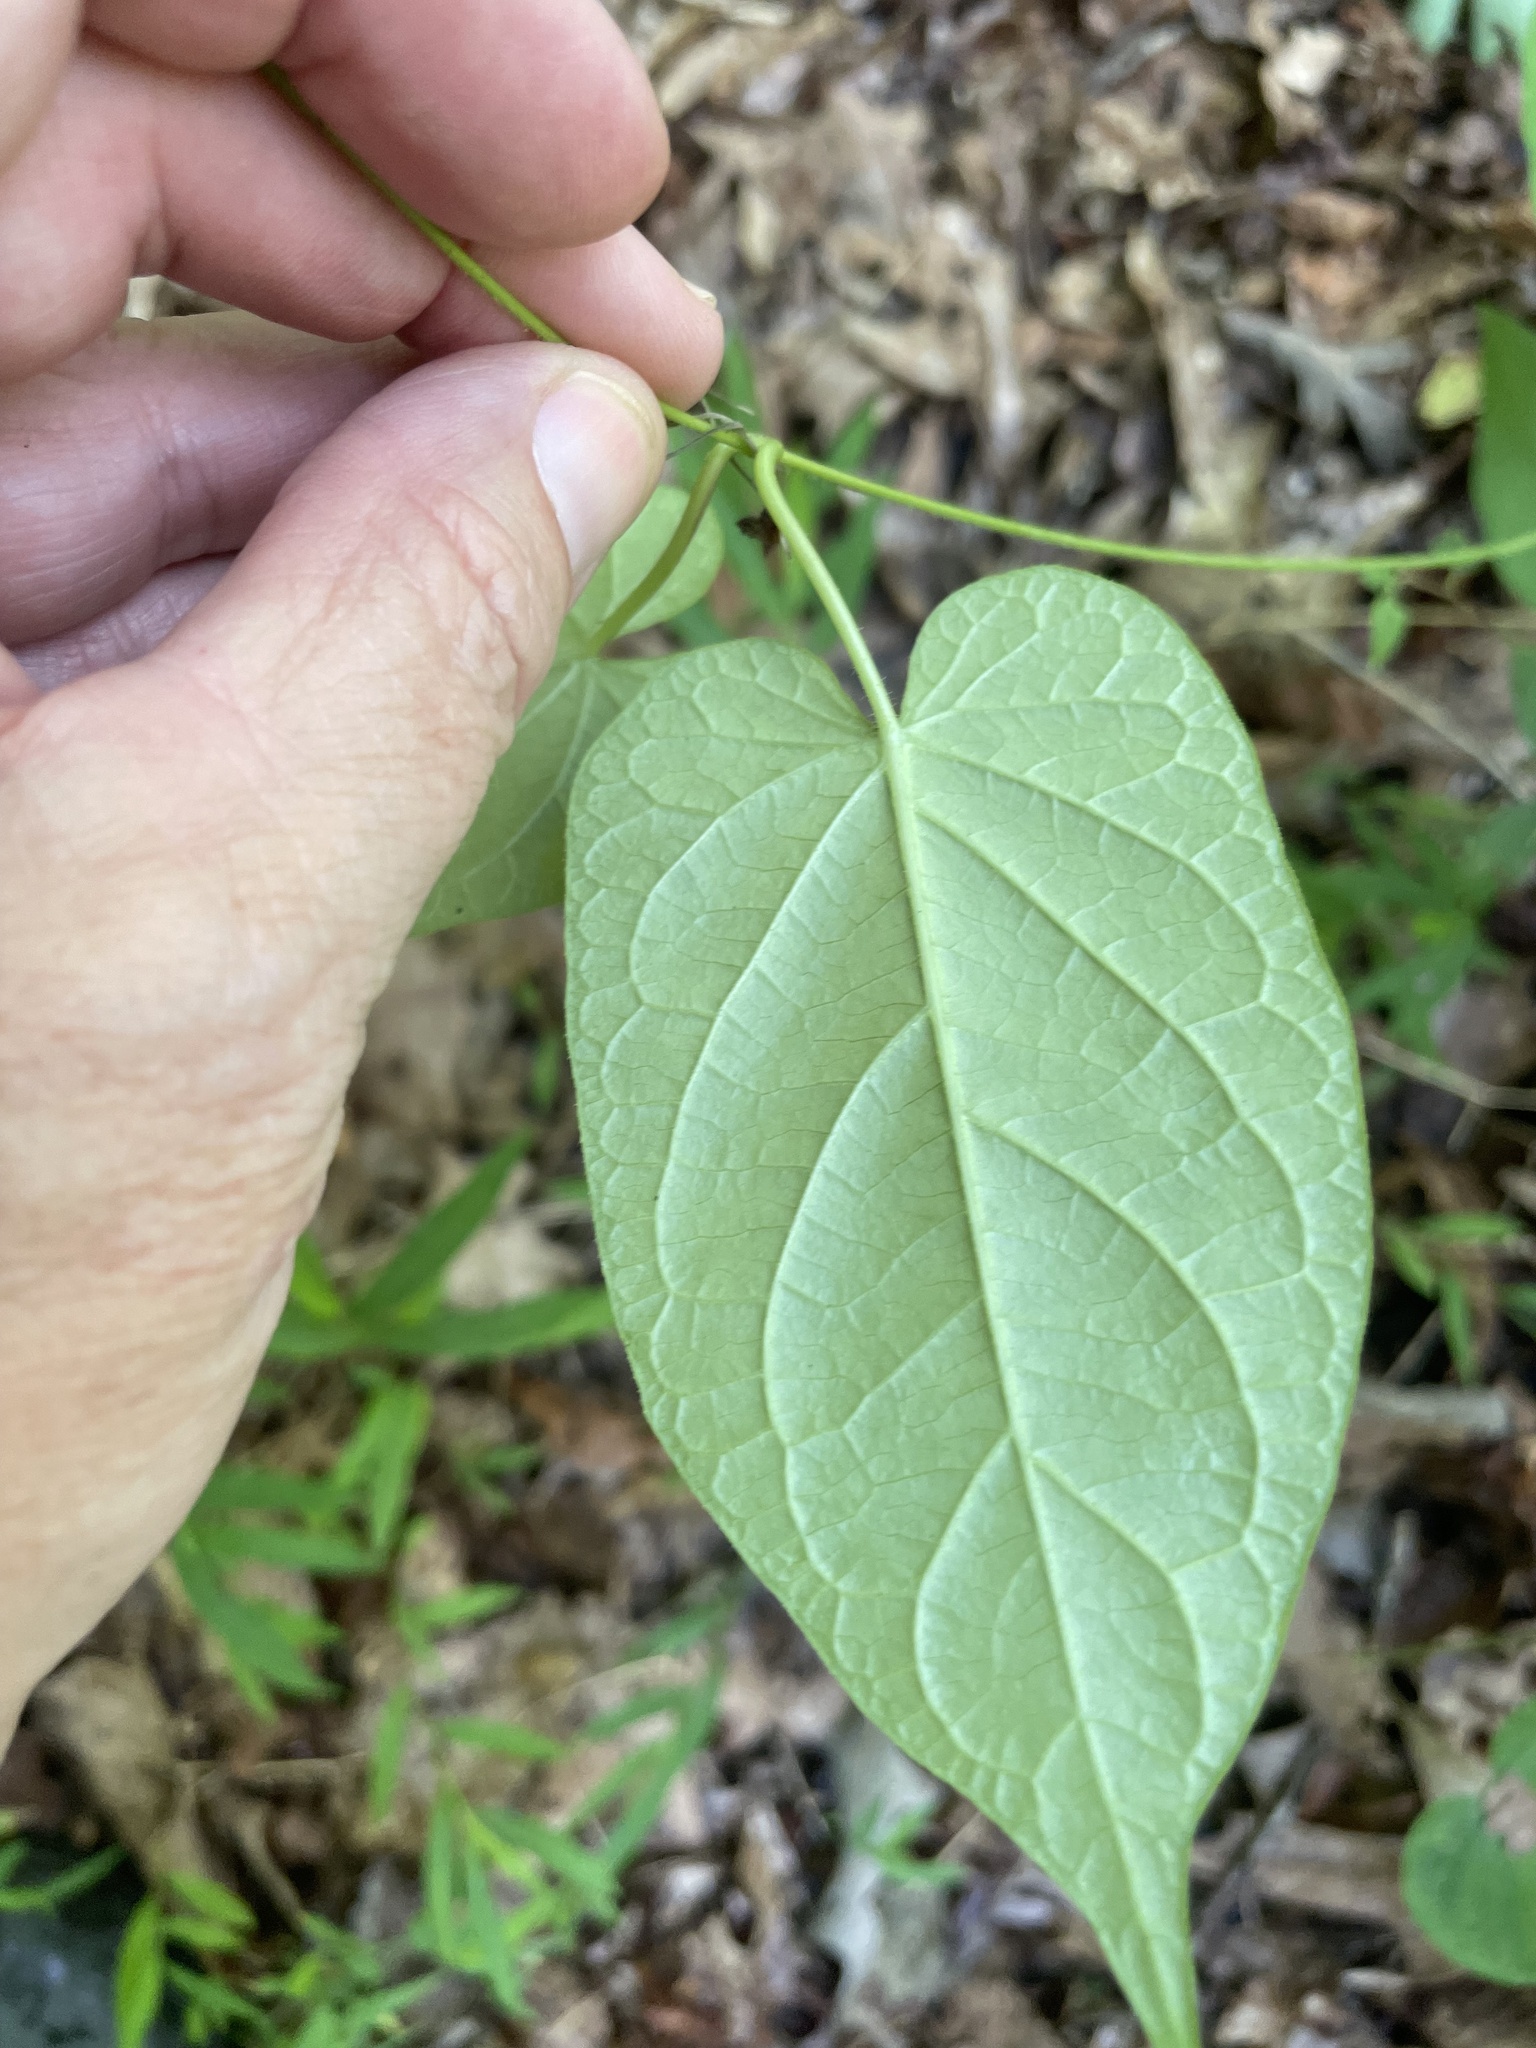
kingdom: Plantae
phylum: Tracheophyta
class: Magnoliopsida
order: Gentianales
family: Apocynaceae
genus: Gonolobus
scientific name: Gonolobus suberosus
